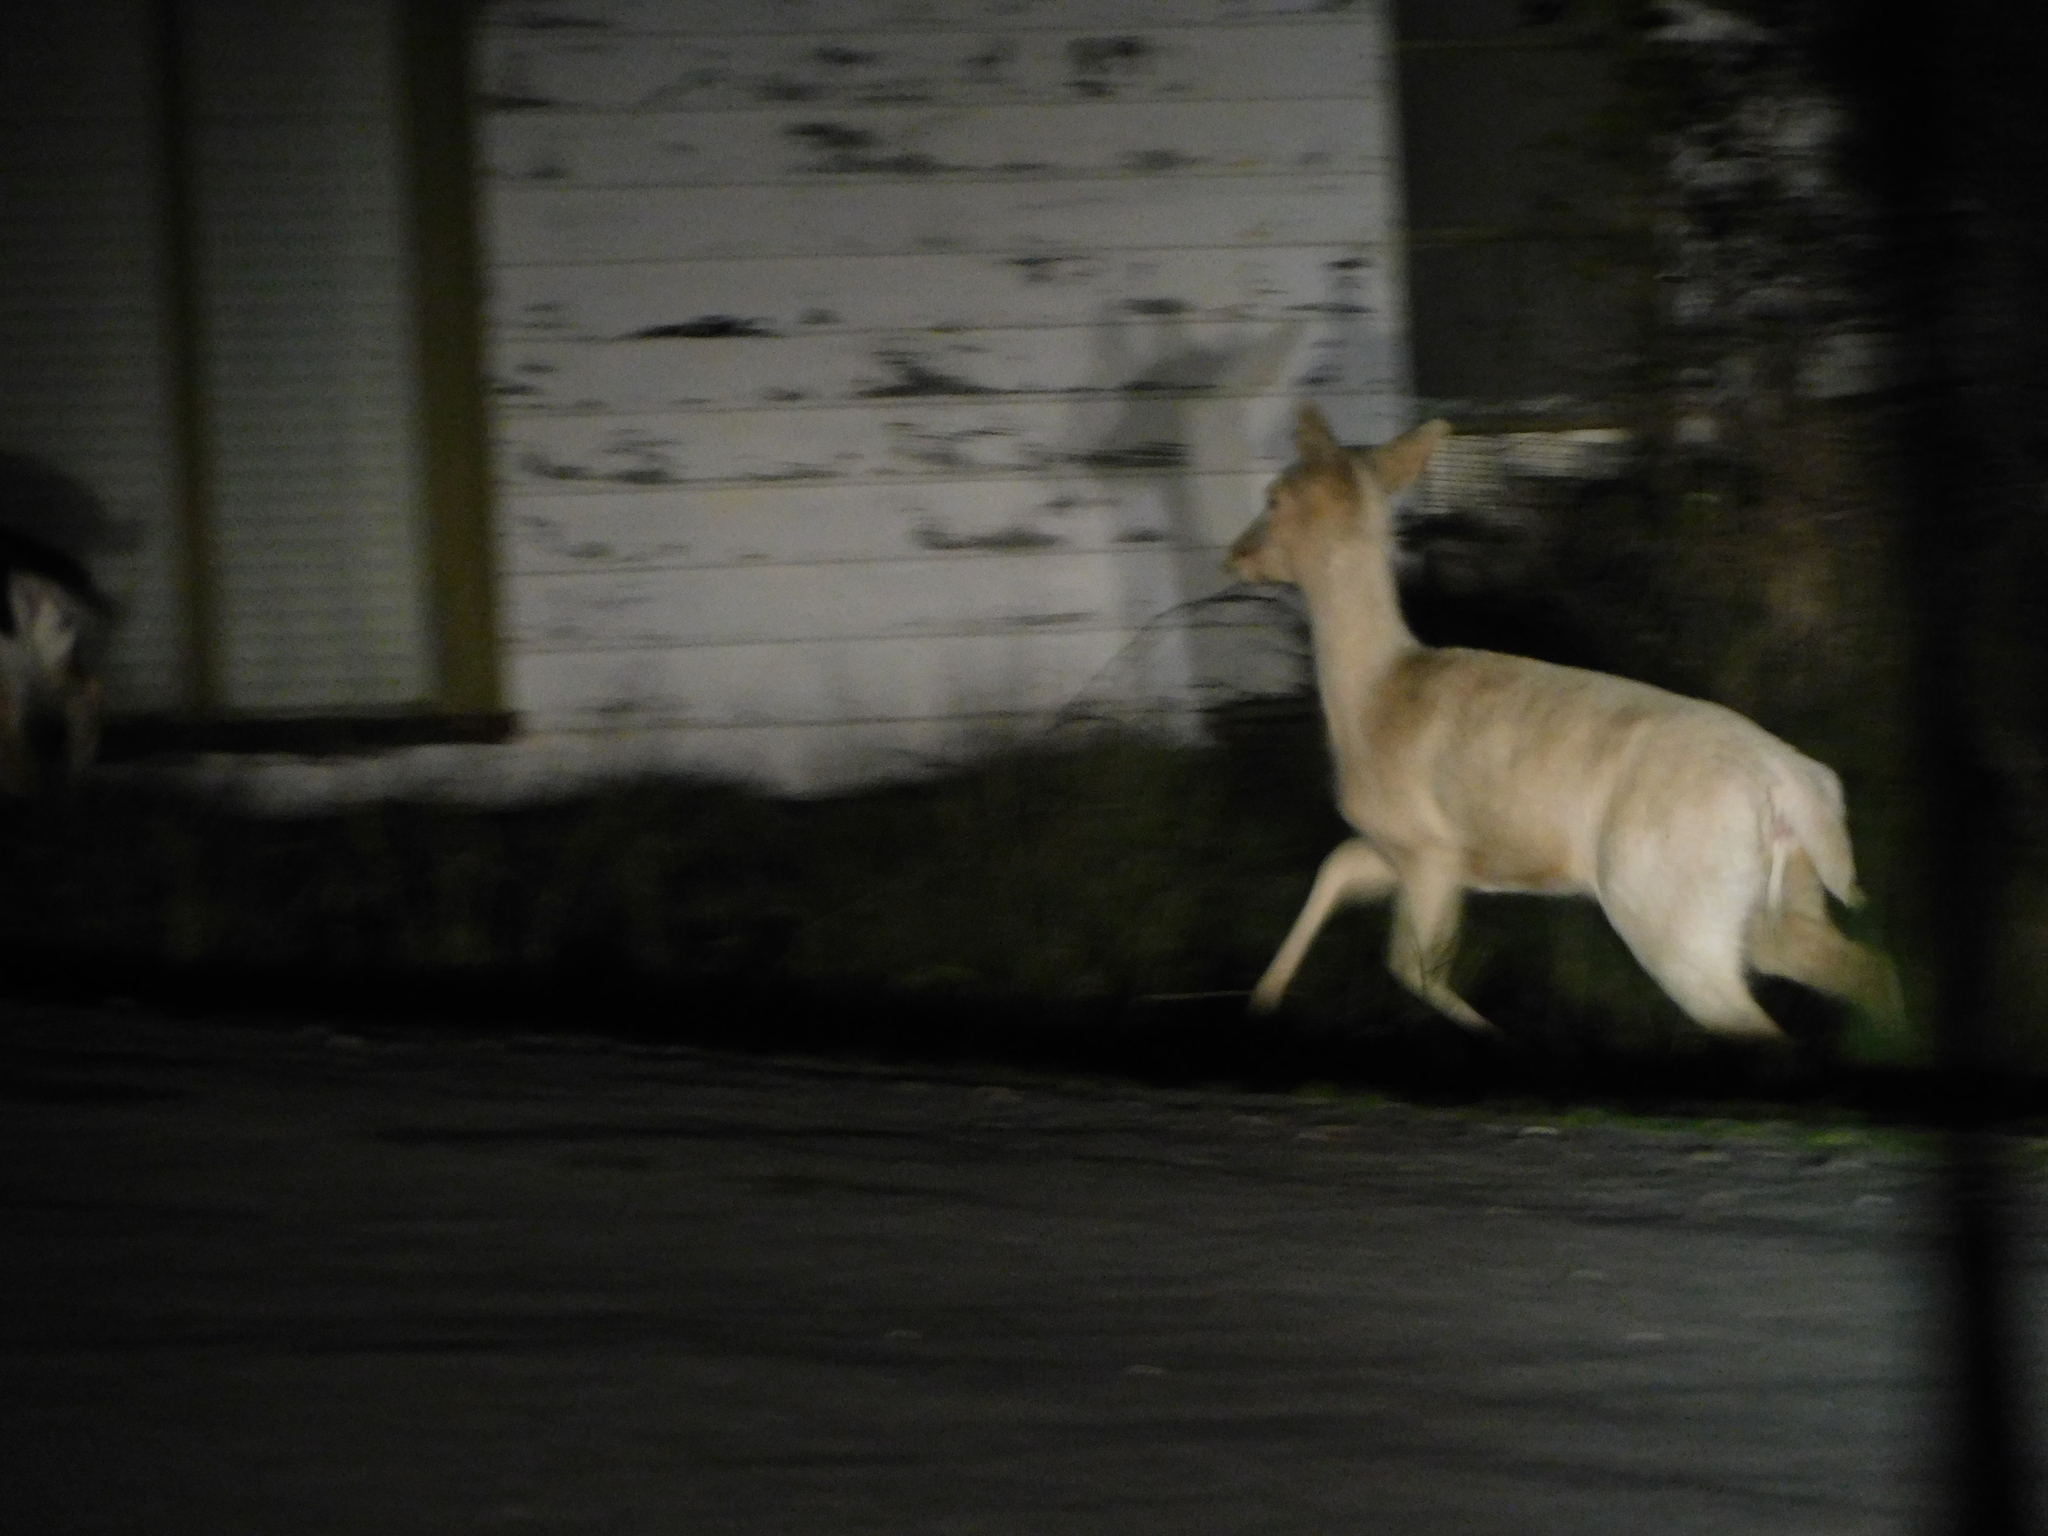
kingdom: Animalia
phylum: Chordata
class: Mammalia
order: Artiodactyla
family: Cervidae
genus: Dama
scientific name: Dama dama
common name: Fallow deer
